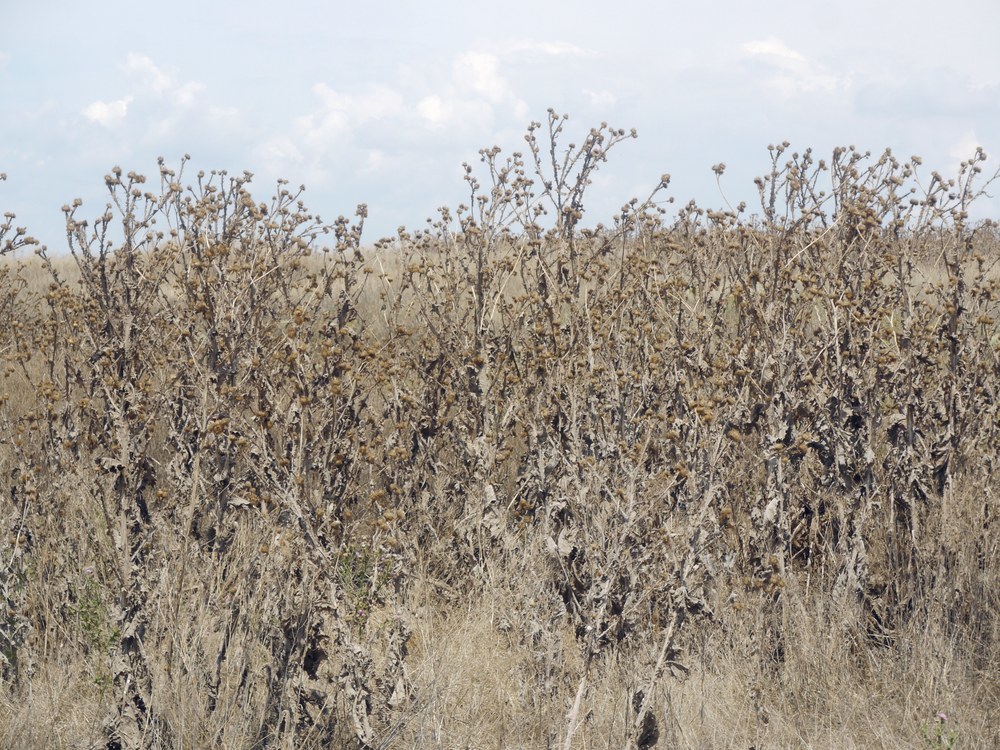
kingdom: Plantae
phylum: Tracheophyta
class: Magnoliopsida
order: Asterales
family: Asteraceae
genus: Onopordum
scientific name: Onopordum acanthium
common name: Scotch thistle
